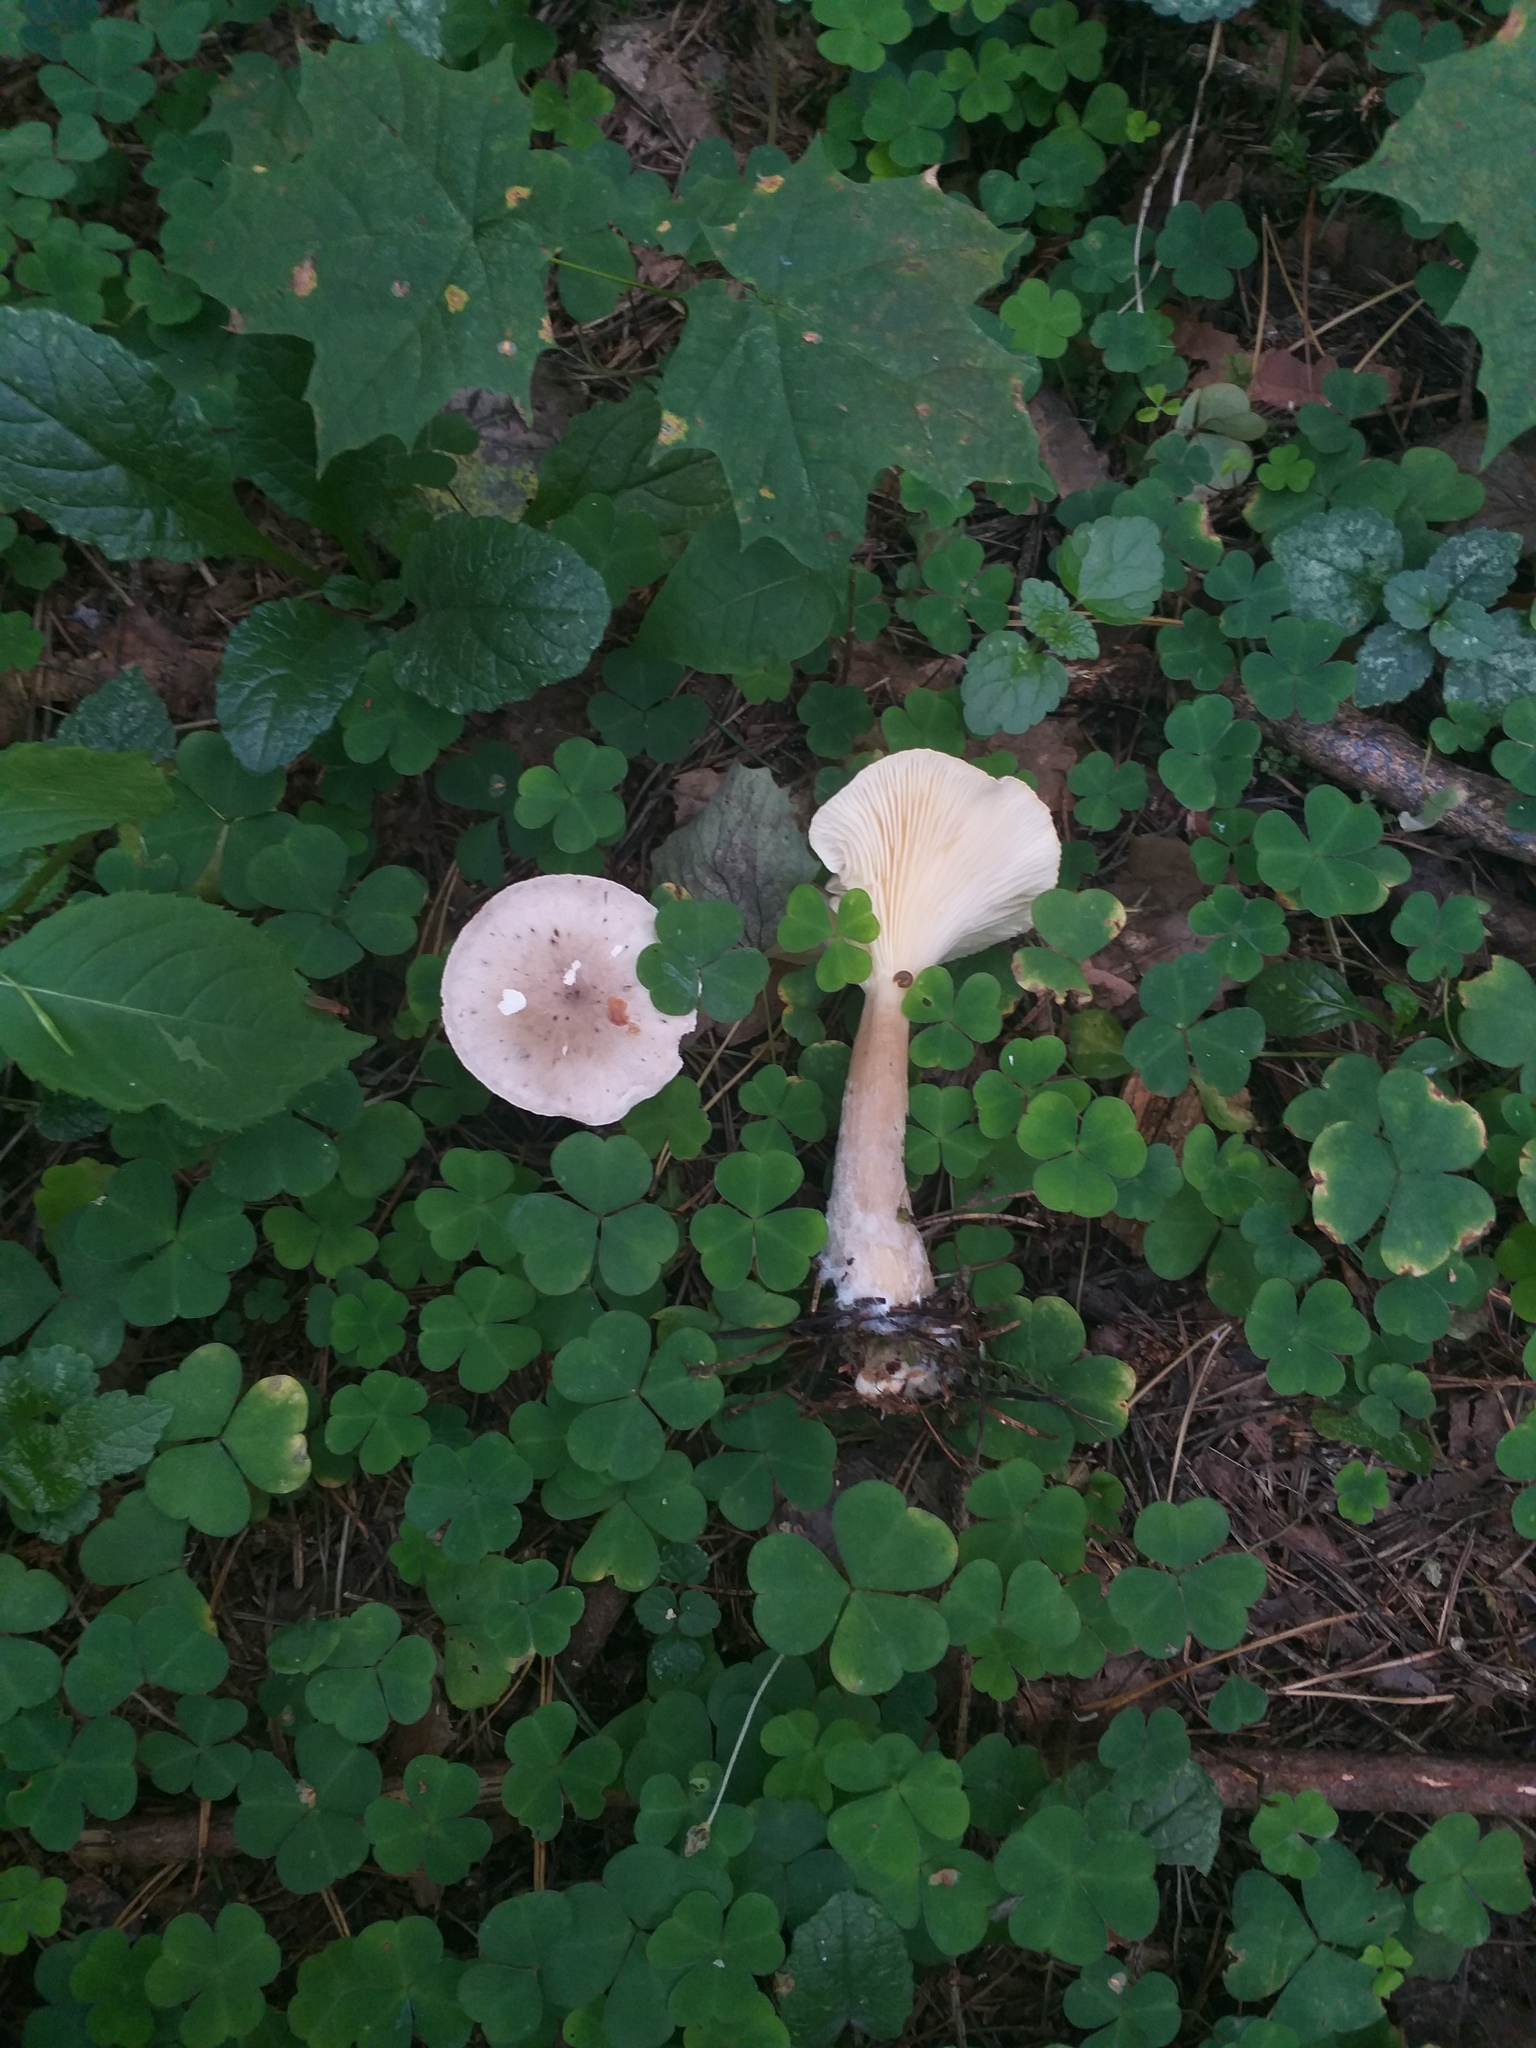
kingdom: Fungi
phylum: Basidiomycota
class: Agaricomycetes
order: Agaricales
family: Hygrophoraceae
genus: Ampulloclitocybe
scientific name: Ampulloclitocybe clavipes
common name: Club foot
